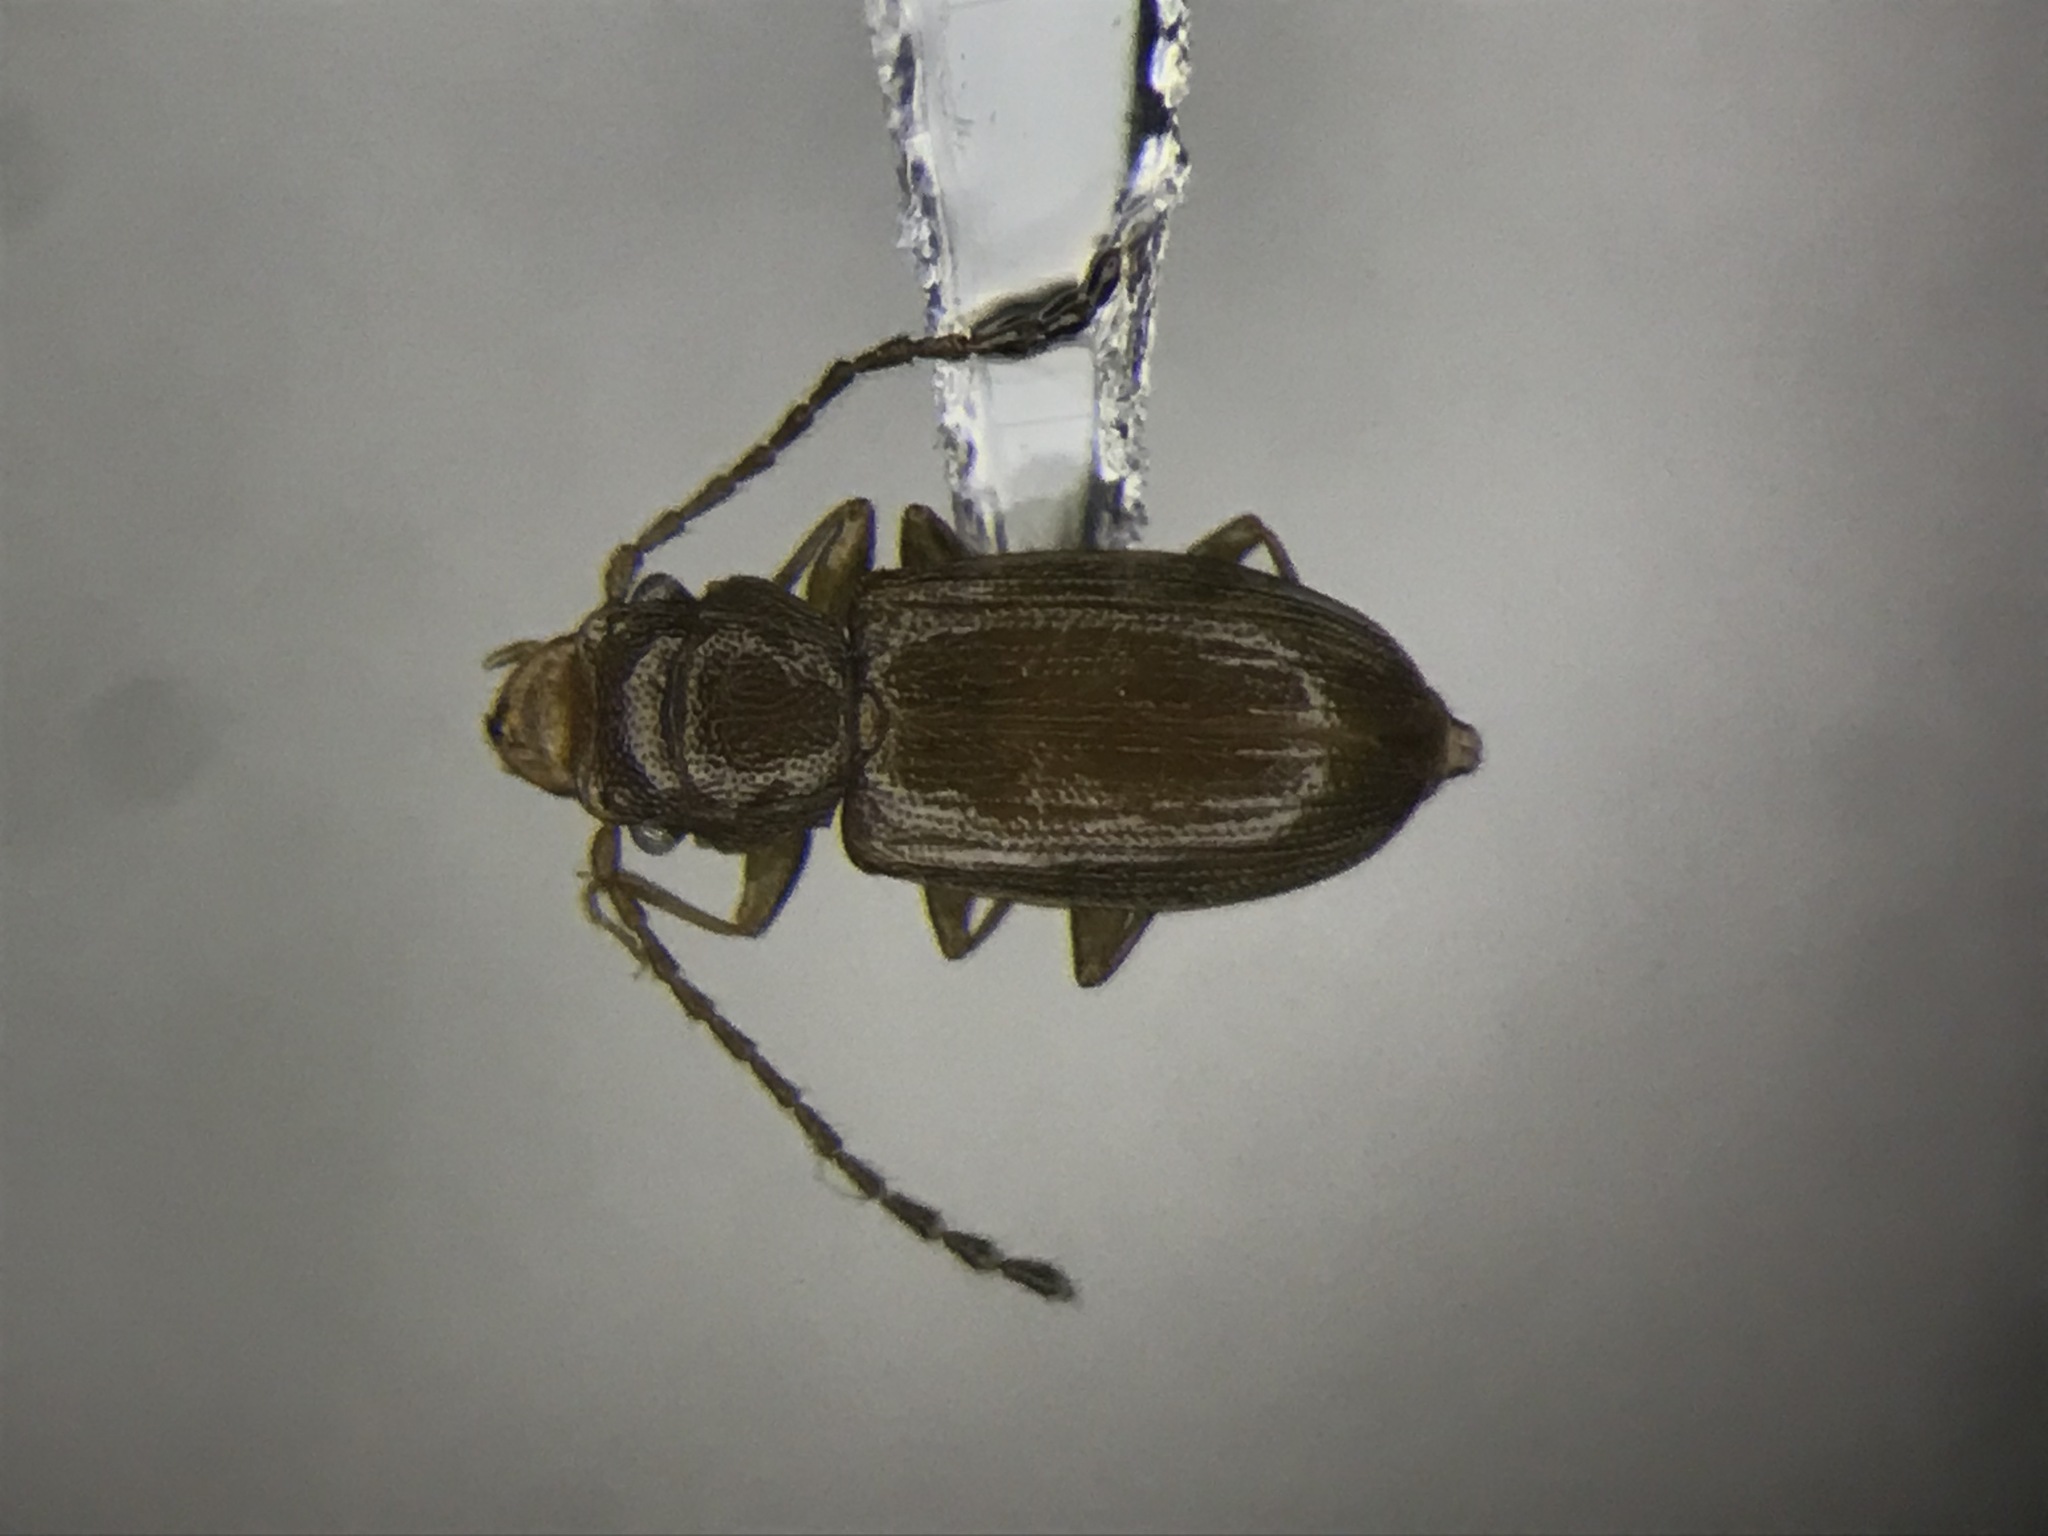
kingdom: Animalia
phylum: Arthropoda
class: Insecta
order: Coleoptera
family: Laemophloeidae
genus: Charaphloeus
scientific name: Charaphloeus convexulus
